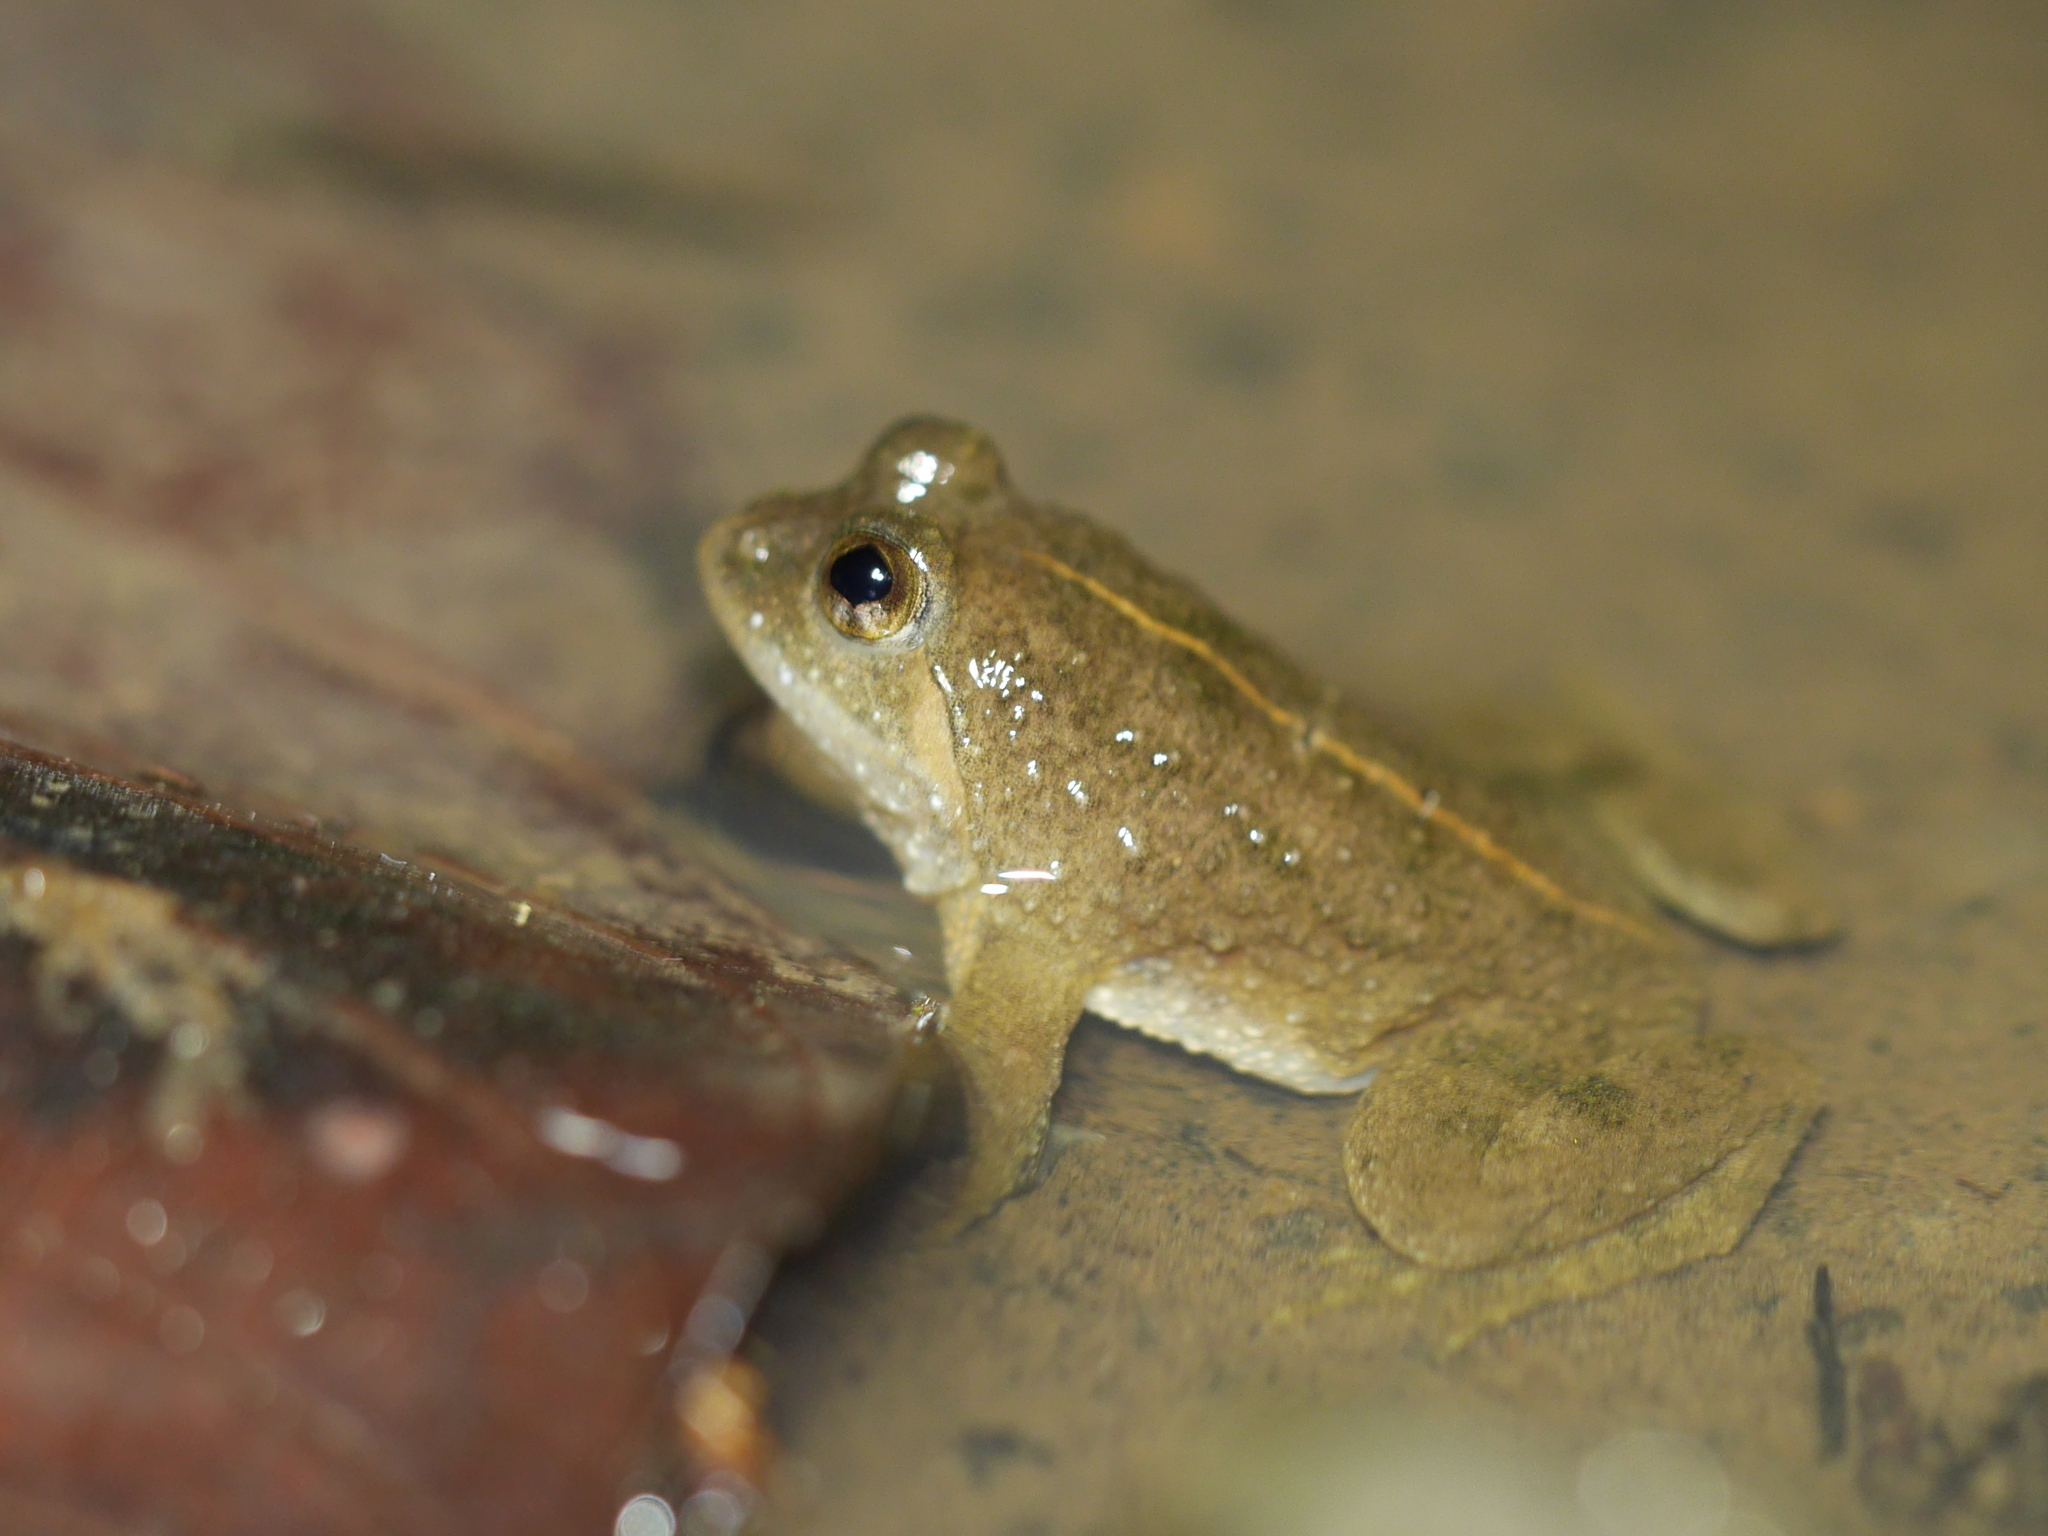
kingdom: Animalia
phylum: Chordata
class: Amphibia
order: Anura
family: Dicroglossidae
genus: Occidozyga
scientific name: Occidozyga sumatrana
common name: Puddle frog
